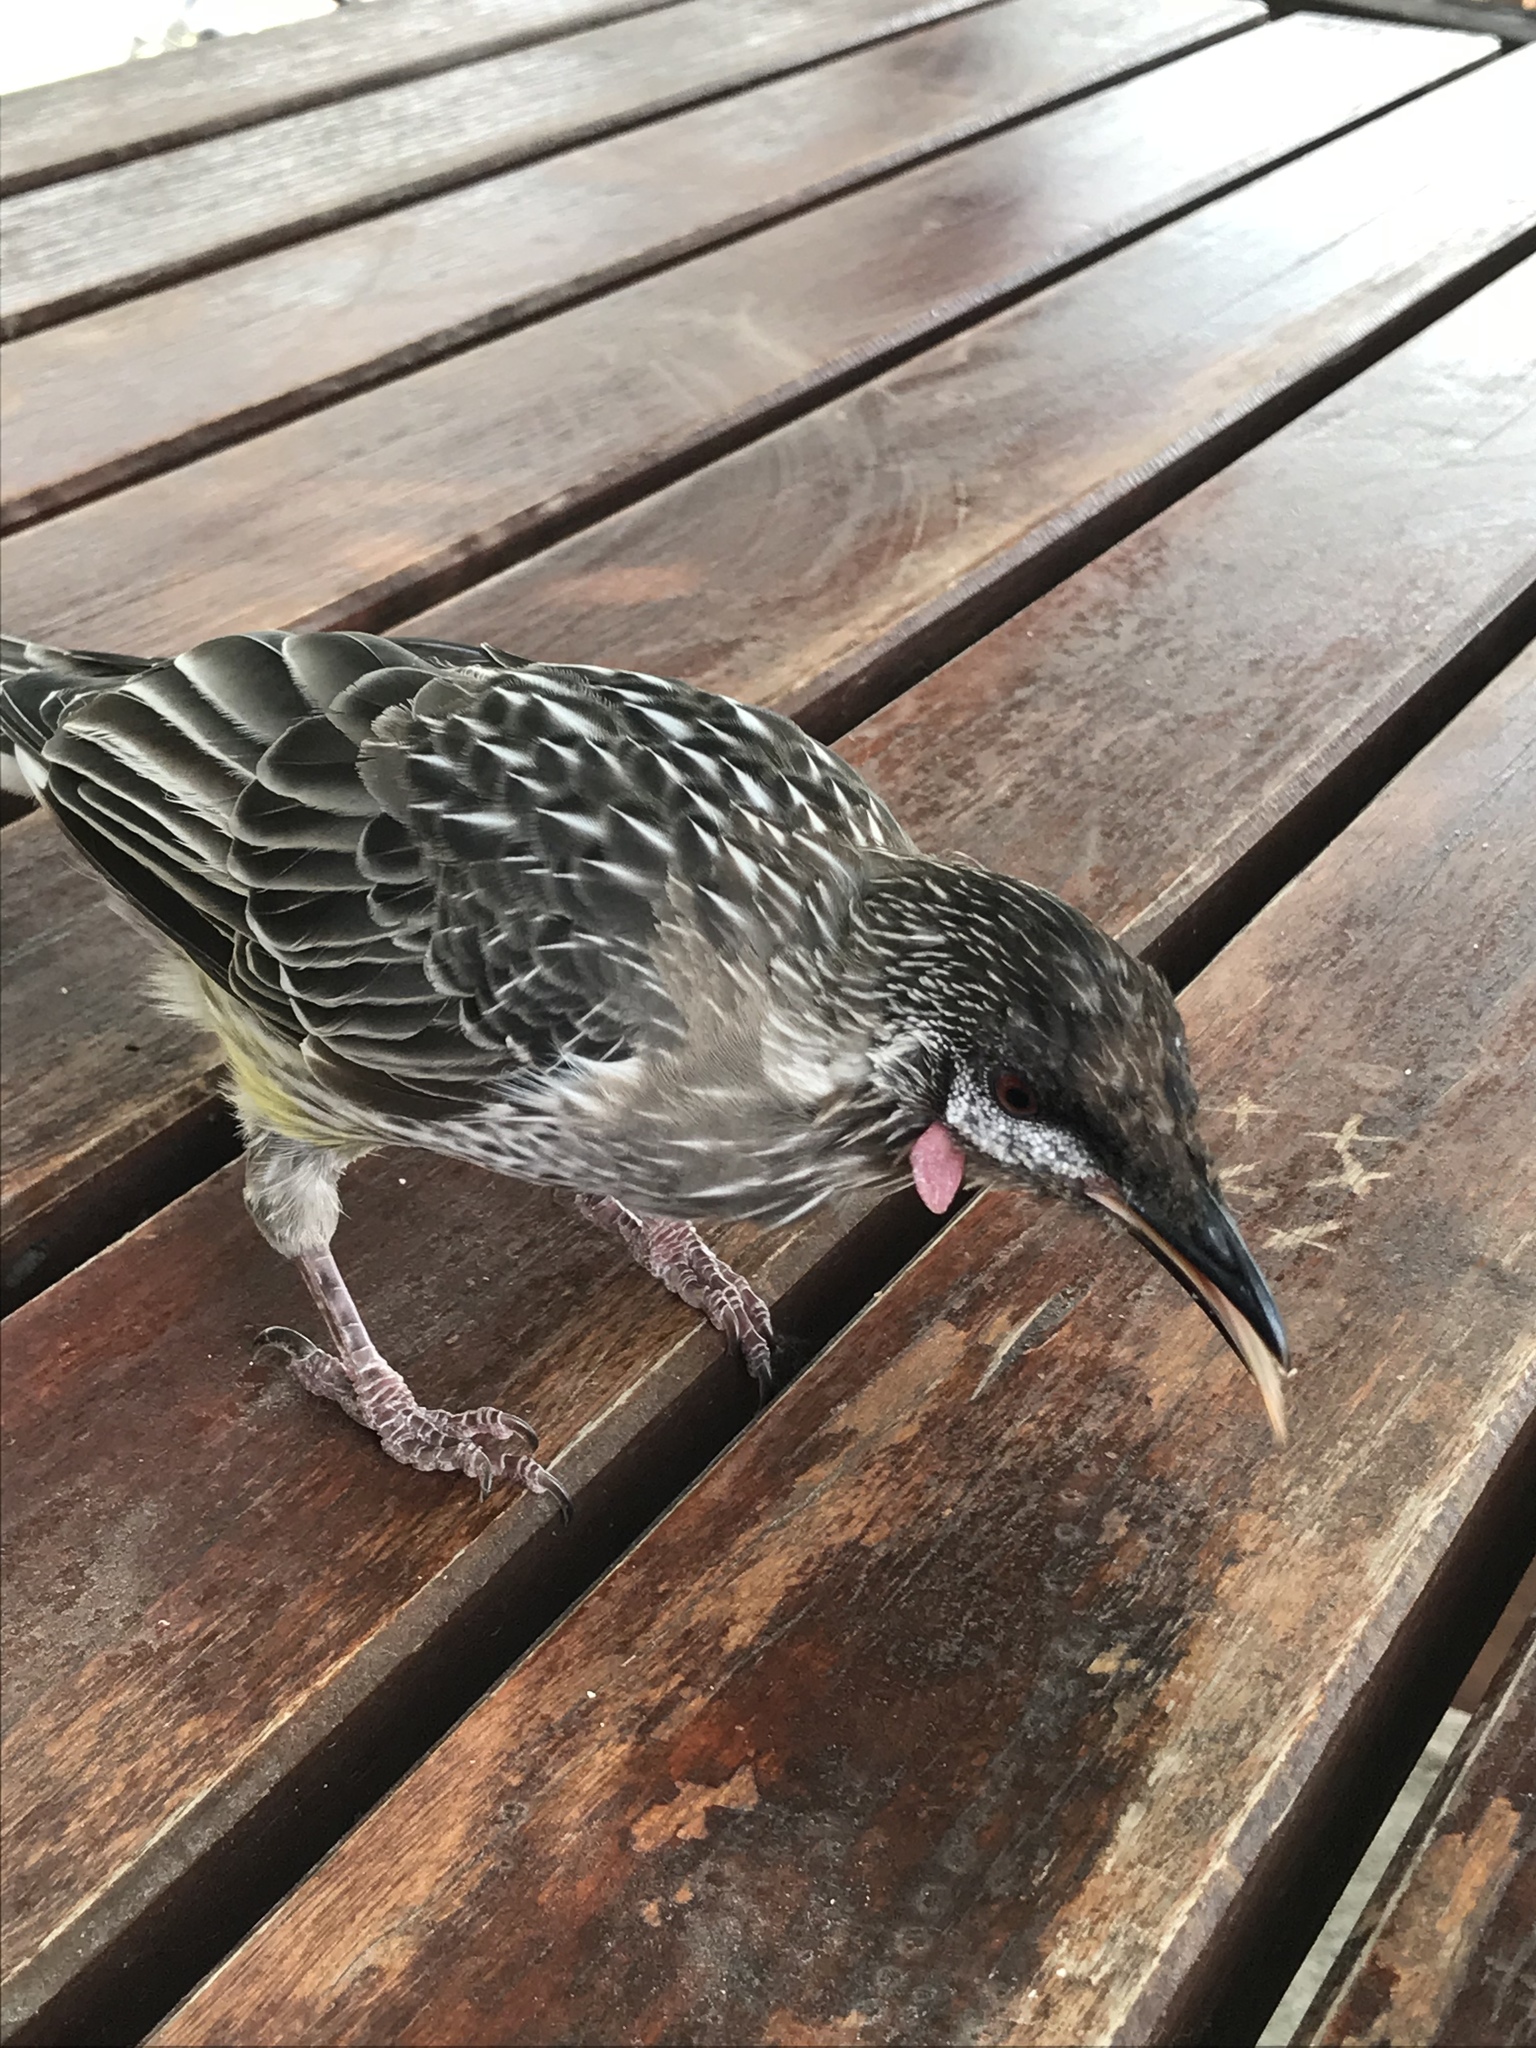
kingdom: Animalia
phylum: Chordata
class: Aves
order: Passeriformes
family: Meliphagidae
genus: Anthochaera
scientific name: Anthochaera carunculata
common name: Red wattlebird
